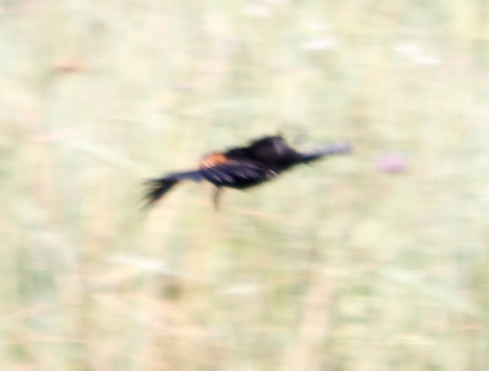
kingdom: Animalia
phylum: Chordata
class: Aves
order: Passeriformes
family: Ploceidae
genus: Euplectes
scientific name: Euplectes axillaris
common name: Fan-tailed widowbird
